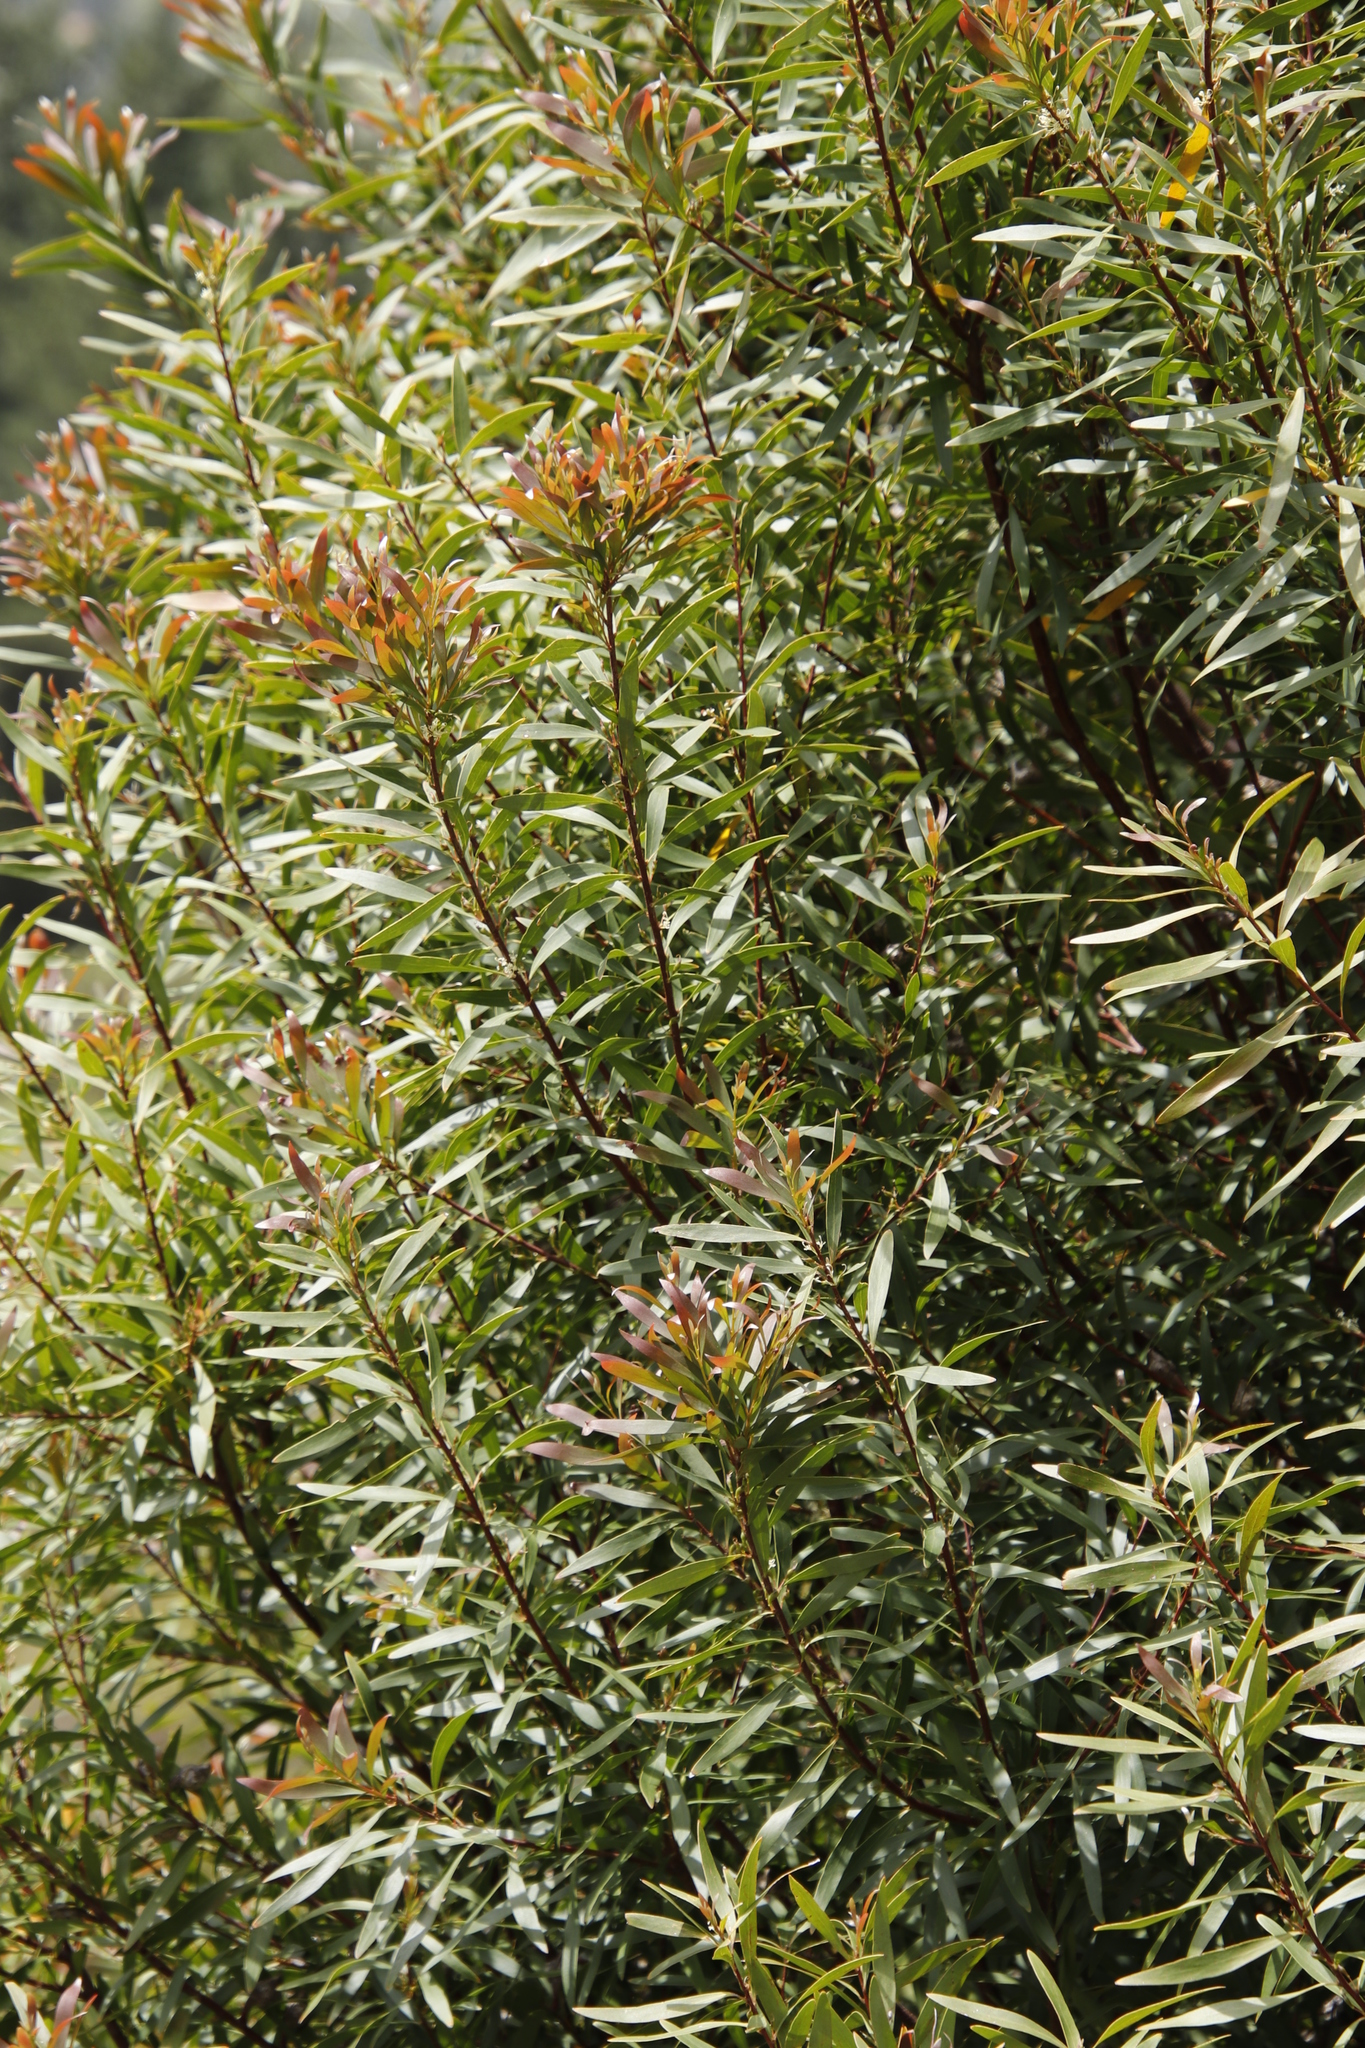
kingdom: Plantae
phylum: Tracheophyta
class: Magnoliopsida
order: Proteales
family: Proteaceae
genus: Hakea
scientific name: Hakea salicifolia
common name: Willow hakea
